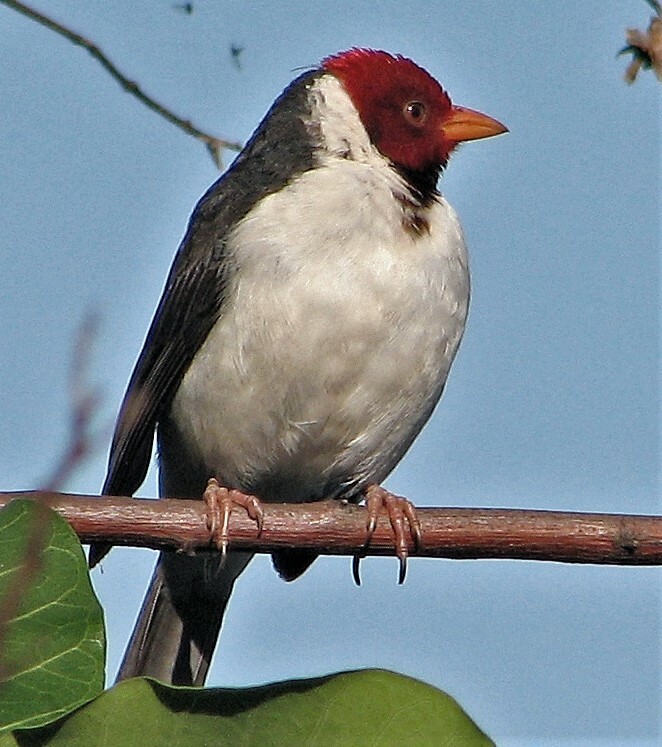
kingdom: Animalia
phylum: Chordata
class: Aves
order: Passeriformes
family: Thraupidae
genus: Paroaria
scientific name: Paroaria capitata
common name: Yellow-billed cardinal
